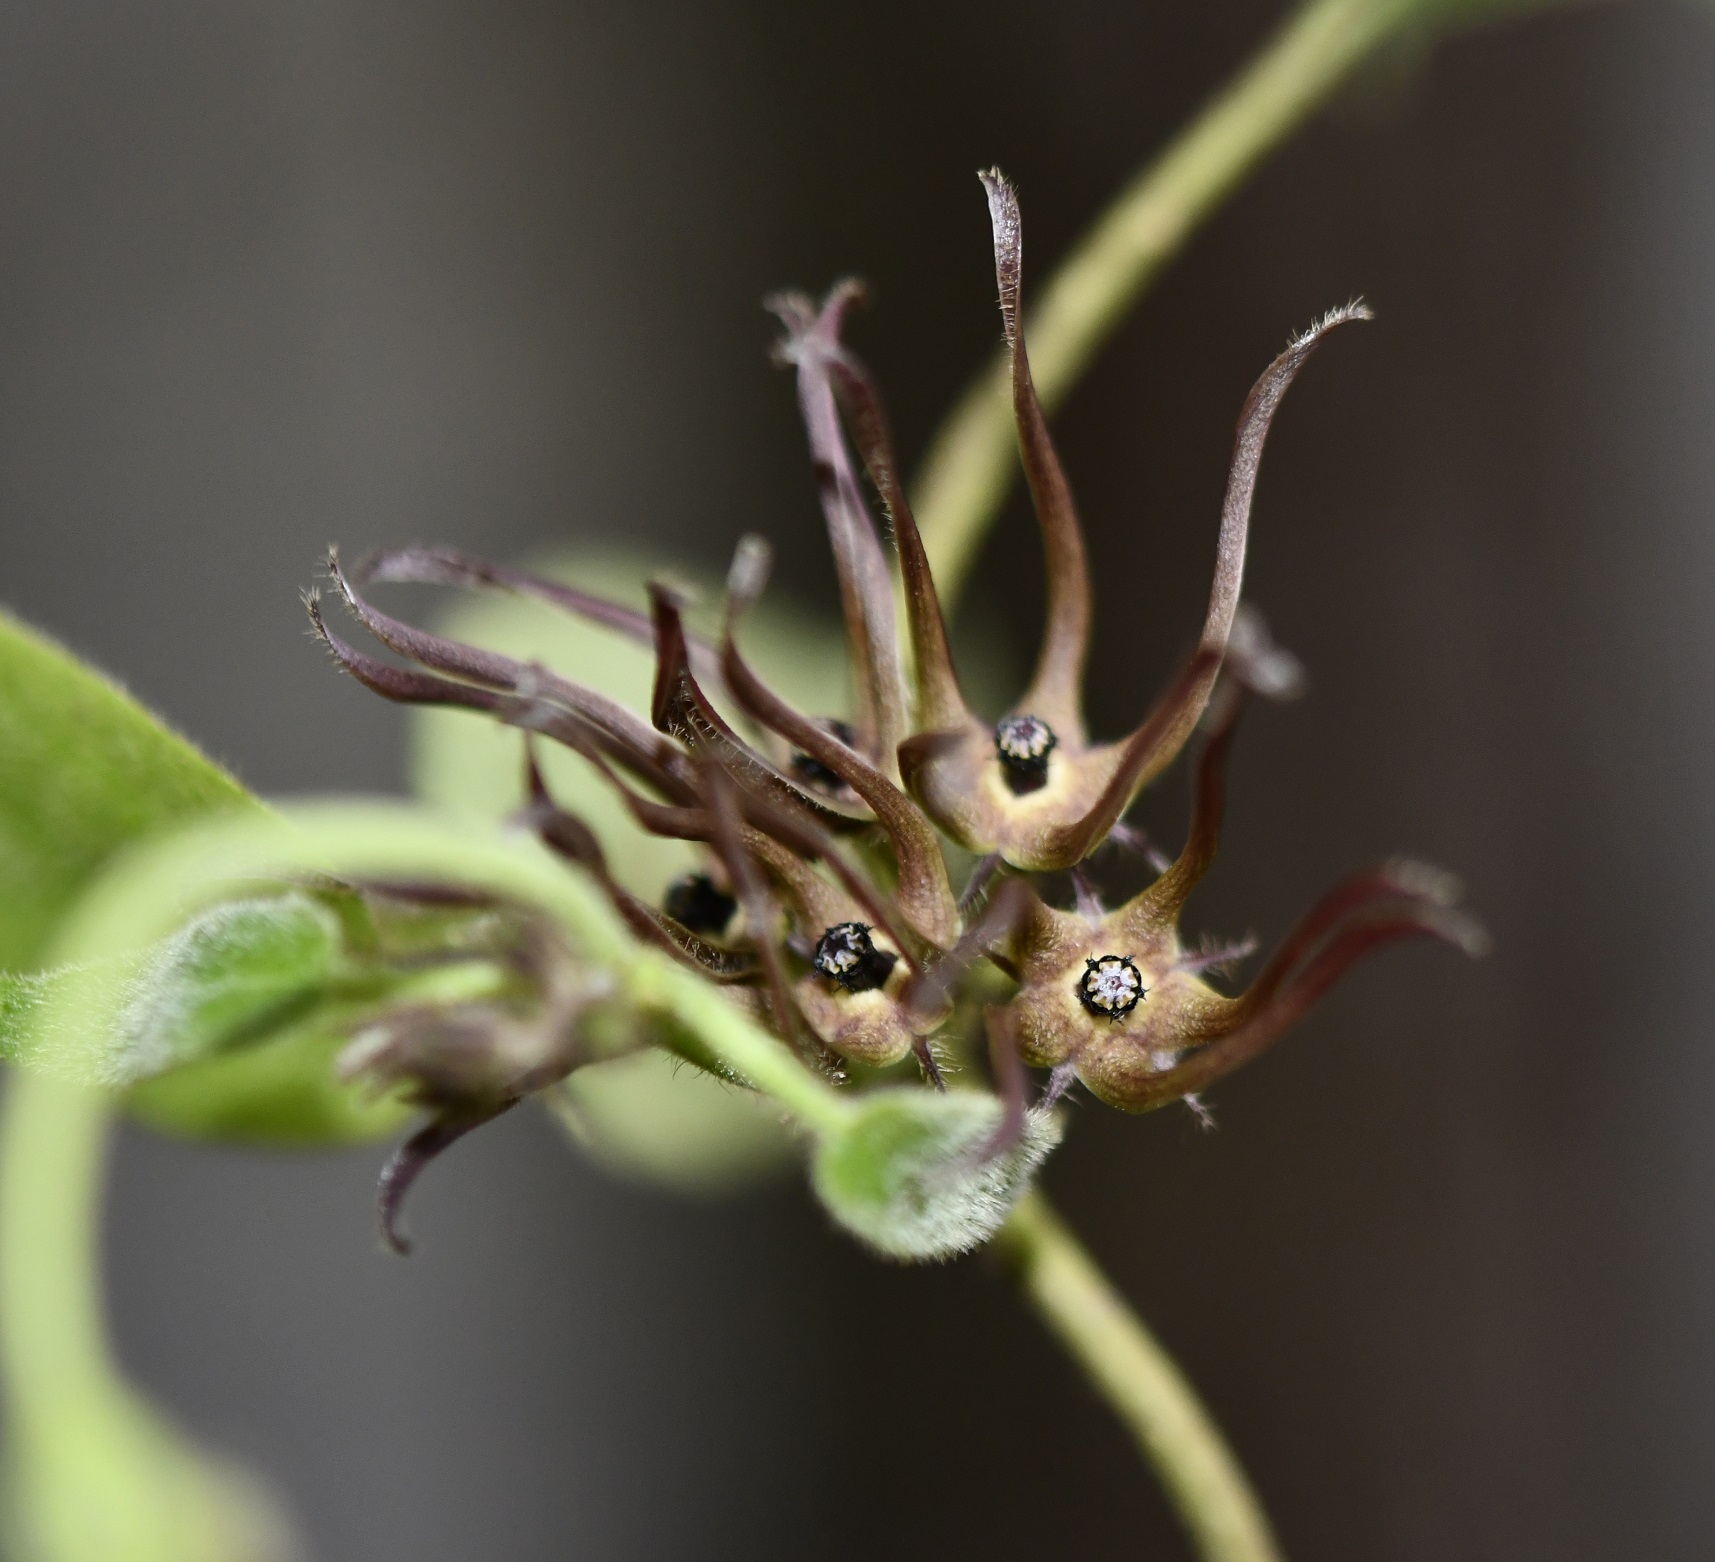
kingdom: Plantae
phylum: Tracheophyta
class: Magnoliopsida
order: Gentianales
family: Apocynaceae
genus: Matelea
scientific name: Matelea medusae
